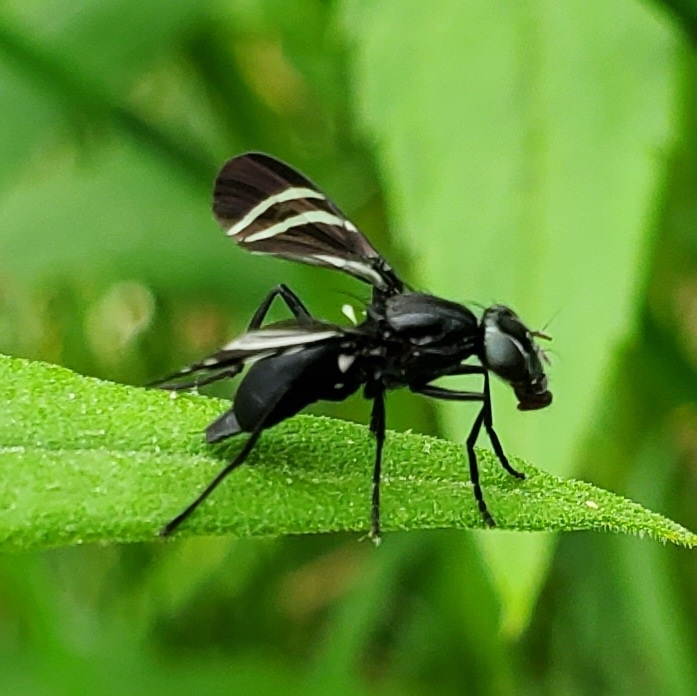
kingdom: Animalia
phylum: Arthropoda
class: Insecta
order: Diptera
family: Ulidiidae
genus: Tritoxa
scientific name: Tritoxa flexa
